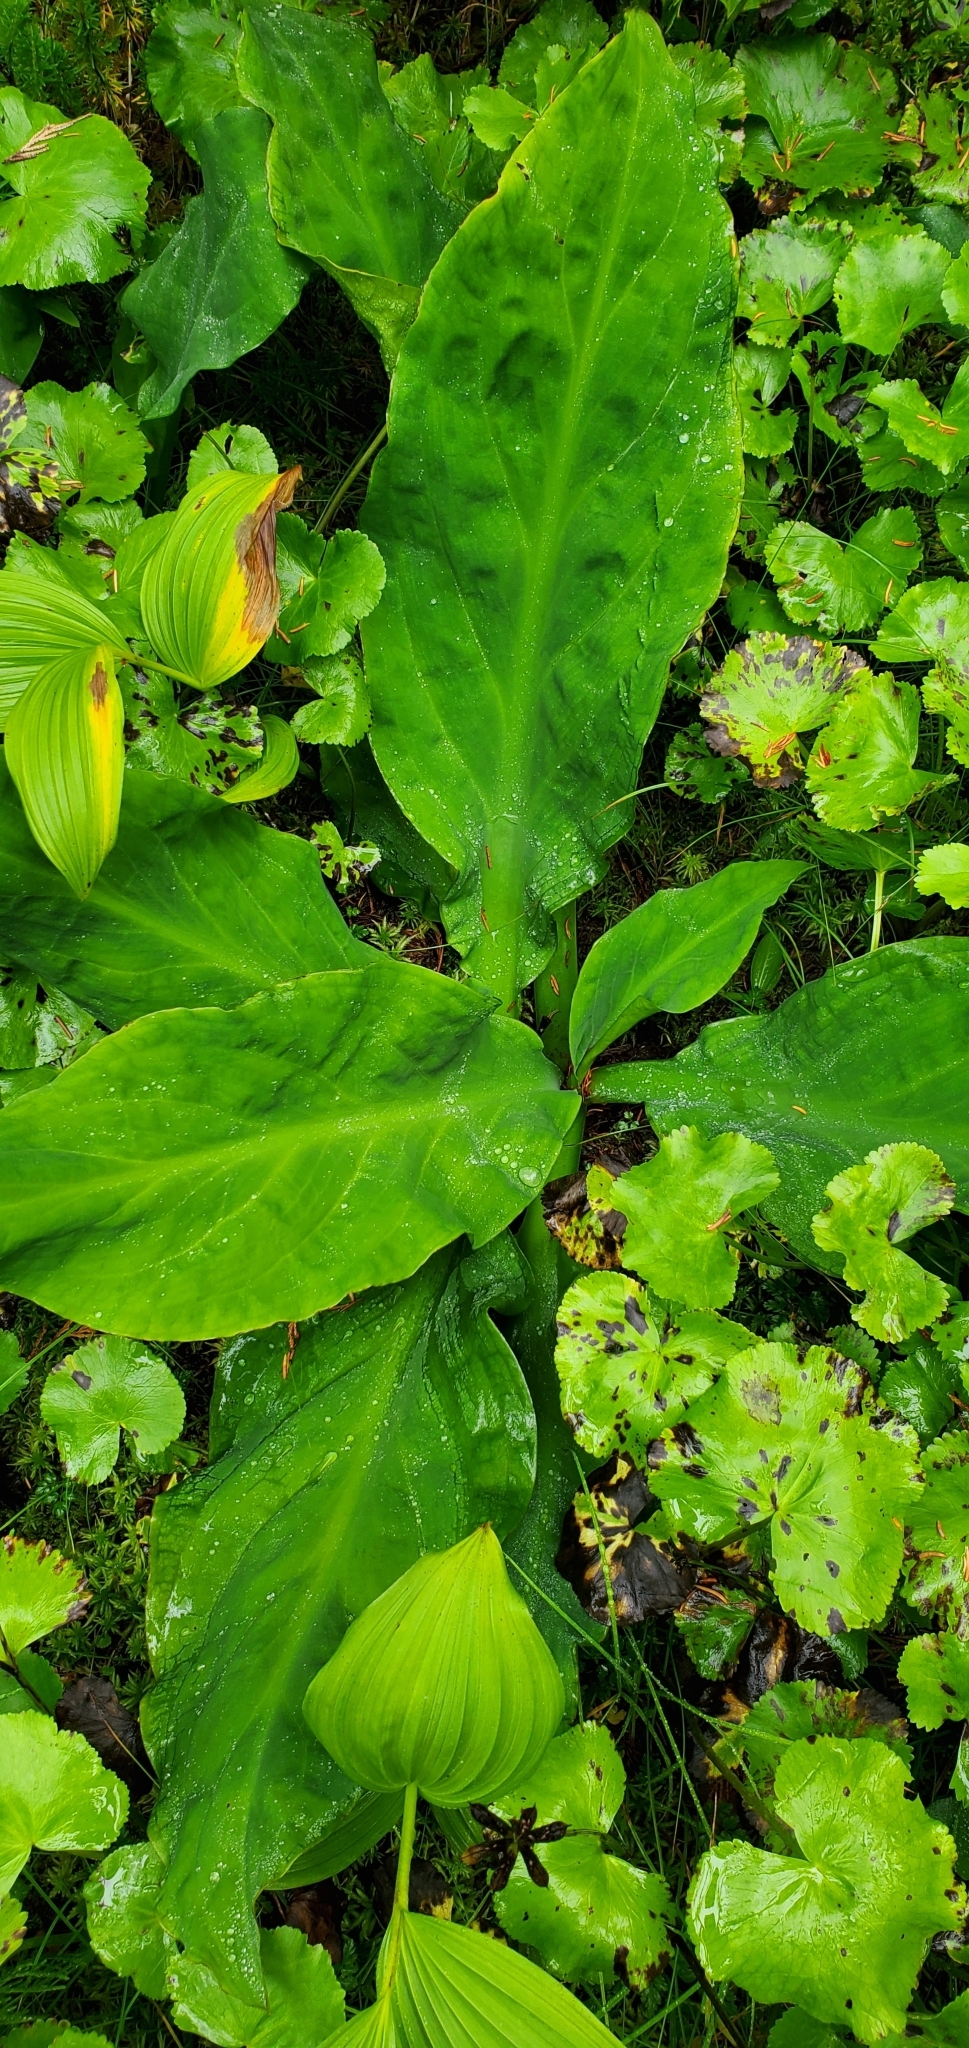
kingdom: Plantae
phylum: Tracheophyta
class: Liliopsida
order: Alismatales
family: Araceae
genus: Lysichiton
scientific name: Lysichiton americanus
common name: American skunk cabbage
